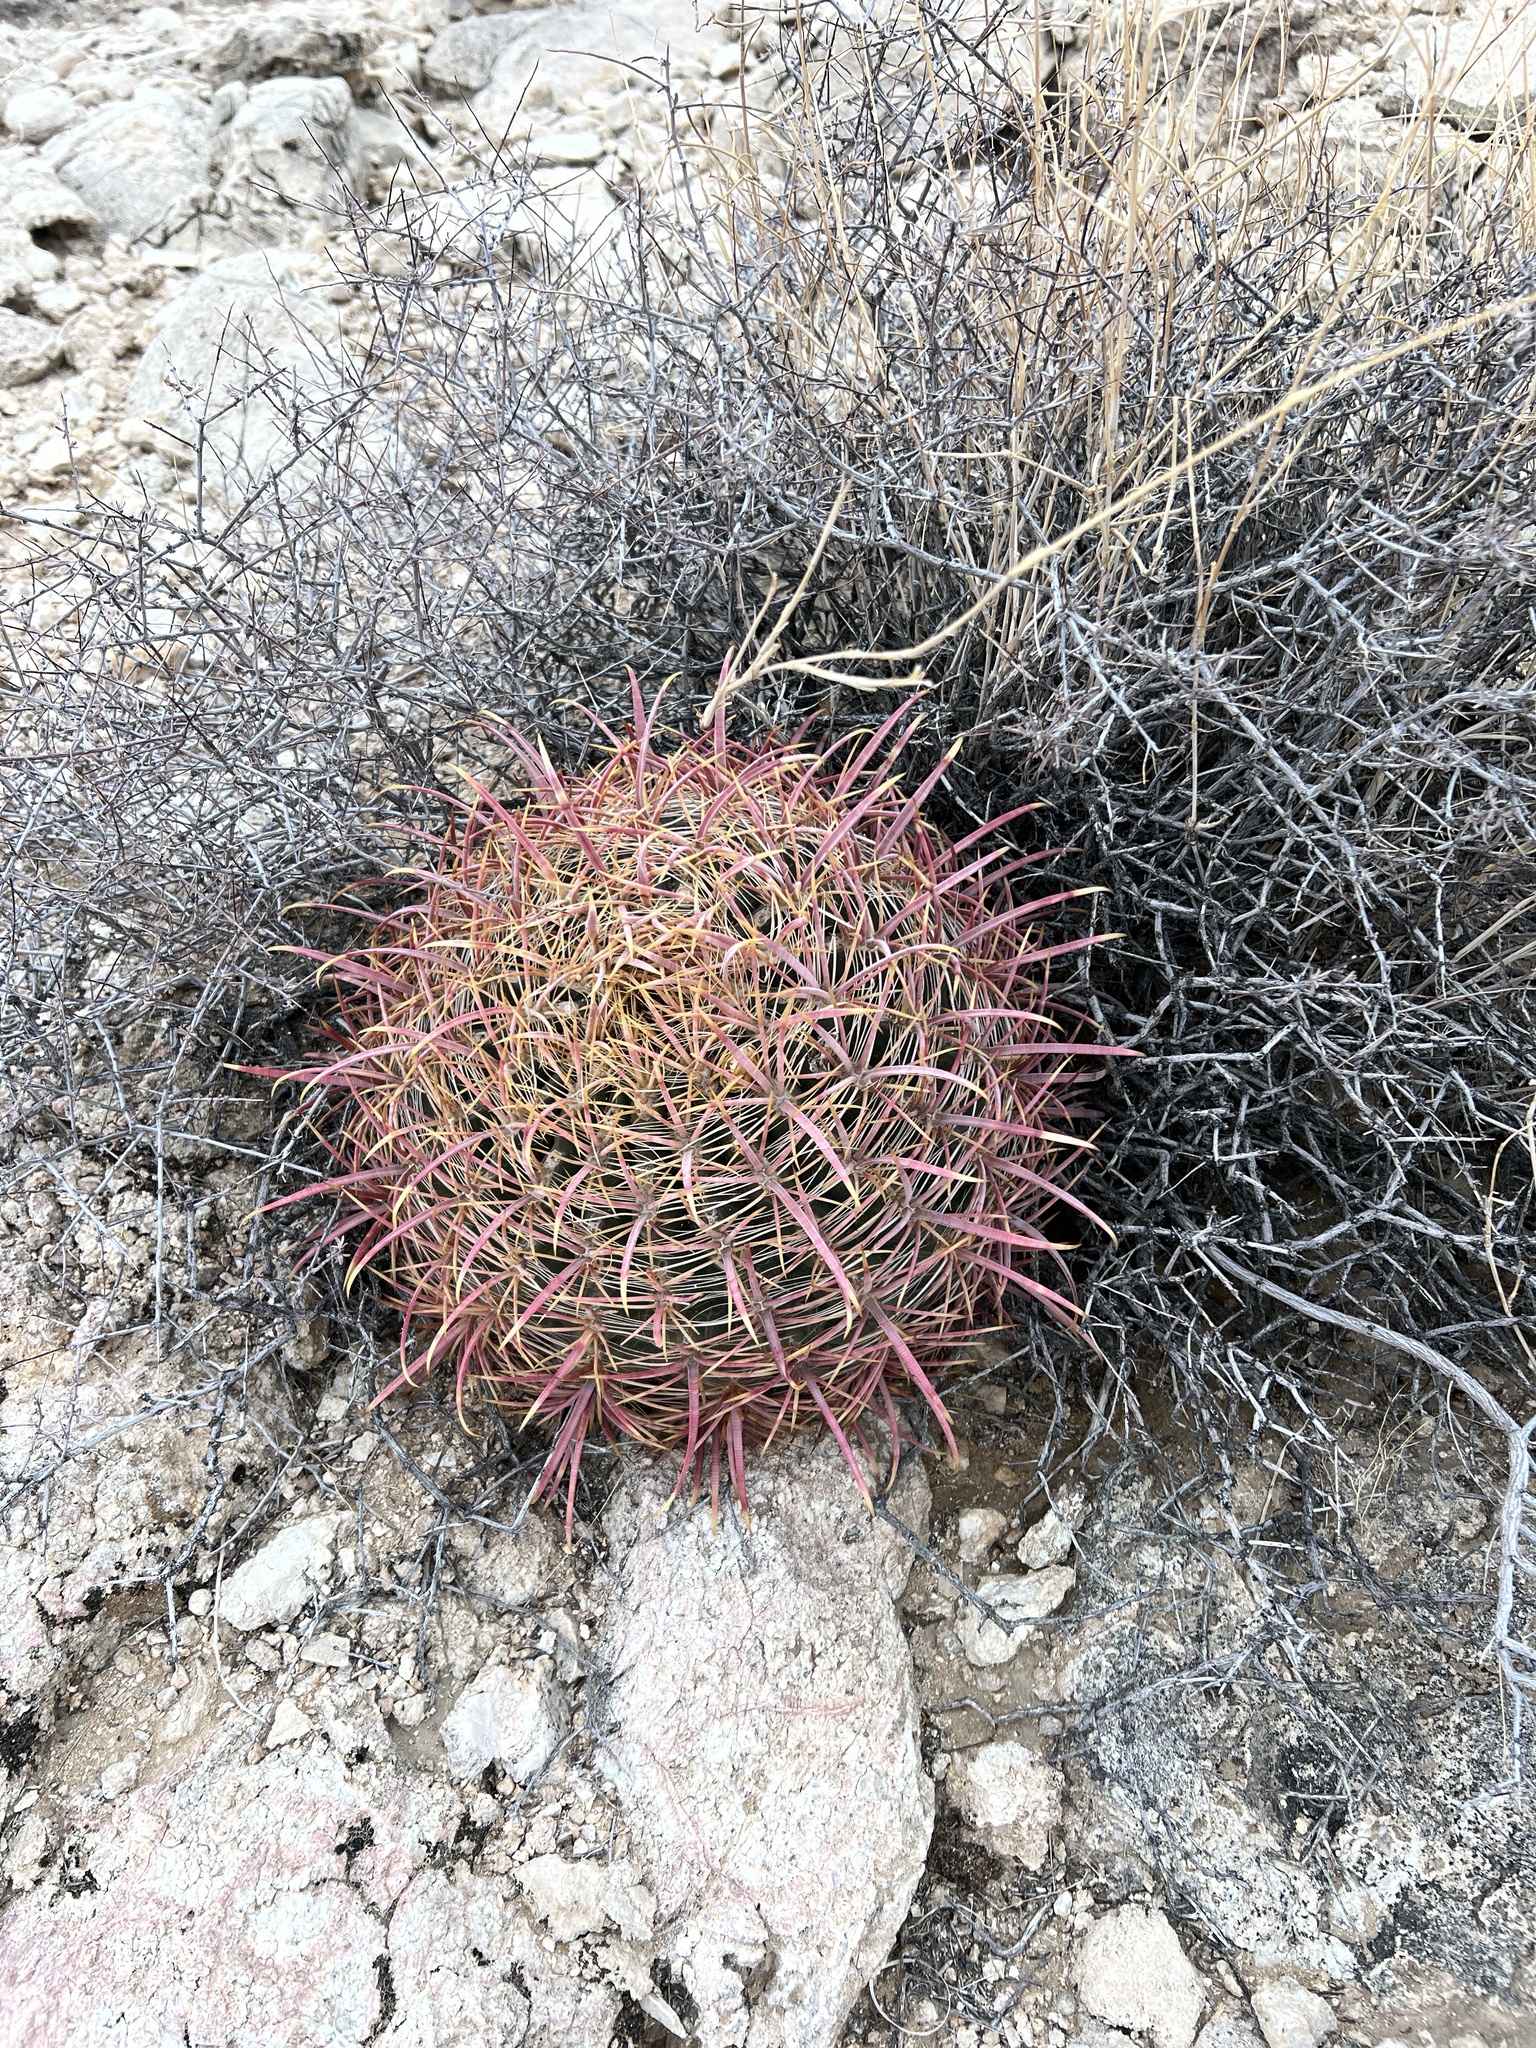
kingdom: Plantae
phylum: Tracheophyta
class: Magnoliopsida
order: Caryophyllales
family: Cactaceae
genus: Ferocactus
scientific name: Ferocactus cylindraceus
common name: California barrel cactus
